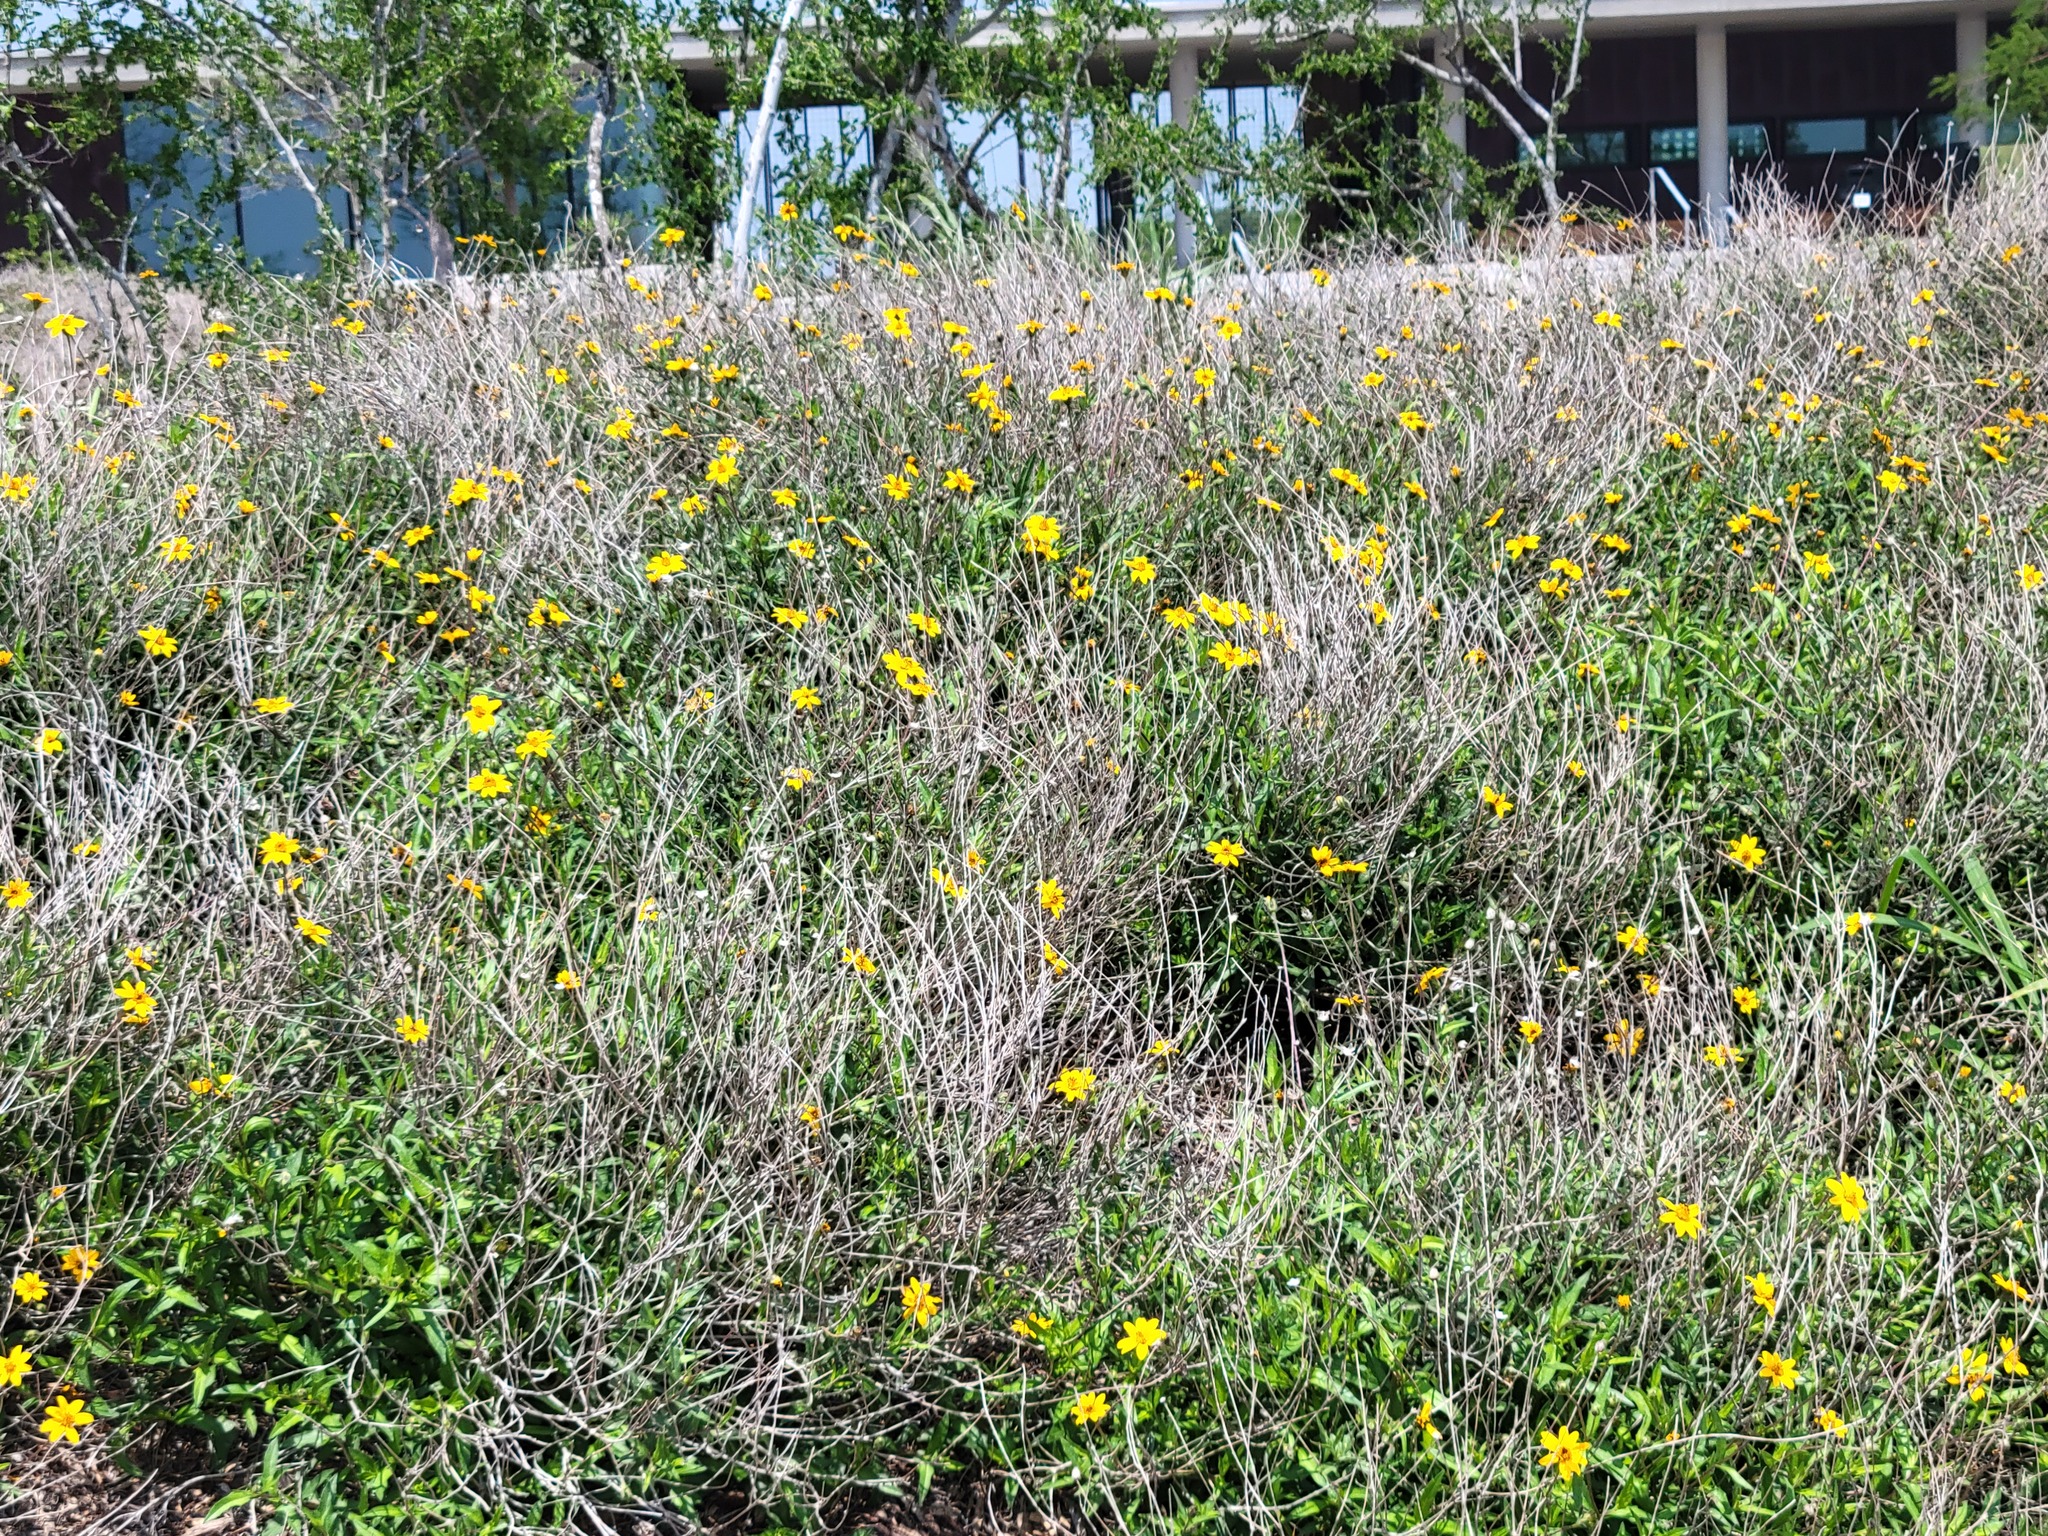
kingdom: Plantae
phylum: Tracheophyta
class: Magnoliopsida
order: Asterales
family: Asteraceae
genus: Wedelia
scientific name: Wedelia acapulcensis
